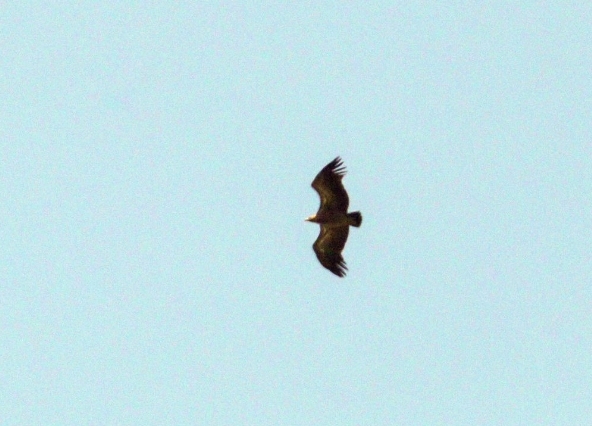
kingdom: Animalia
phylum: Chordata
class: Aves
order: Accipitriformes
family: Accipitridae
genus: Gyps
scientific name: Gyps africanus
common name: White-backed vulture
